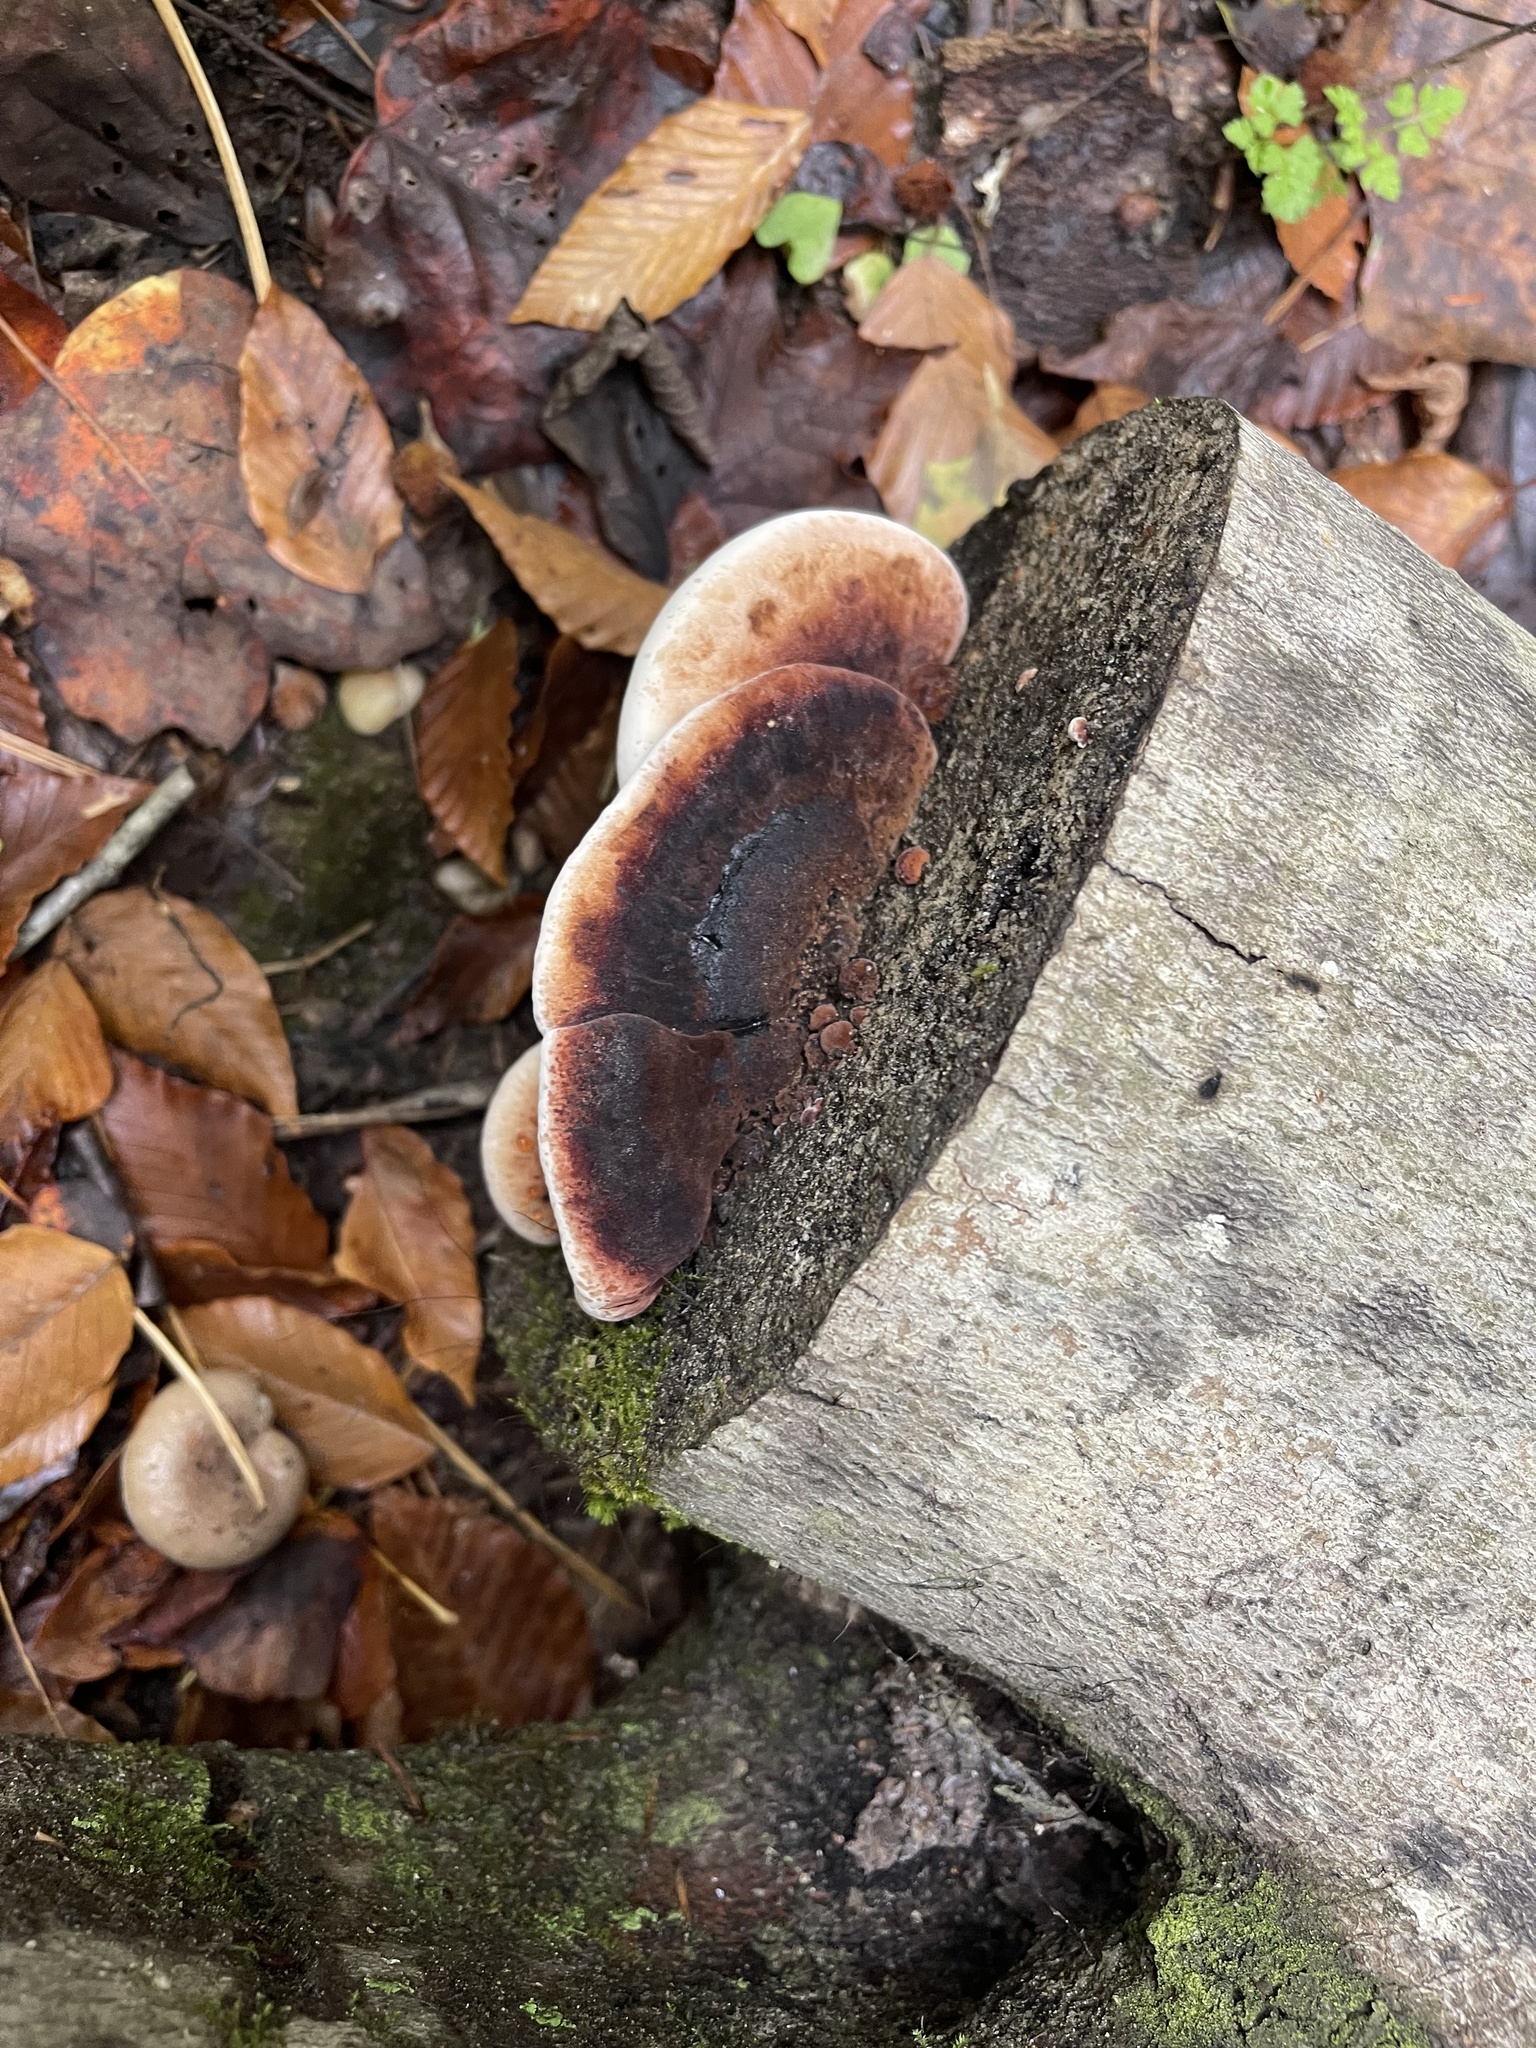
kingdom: Fungi
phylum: Basidiomycota
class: Agaricomycetes
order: Polyporales
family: Ischnodermataceae
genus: Ischnoderma
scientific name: Ischnoderma resinosum
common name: Resinous polypore
